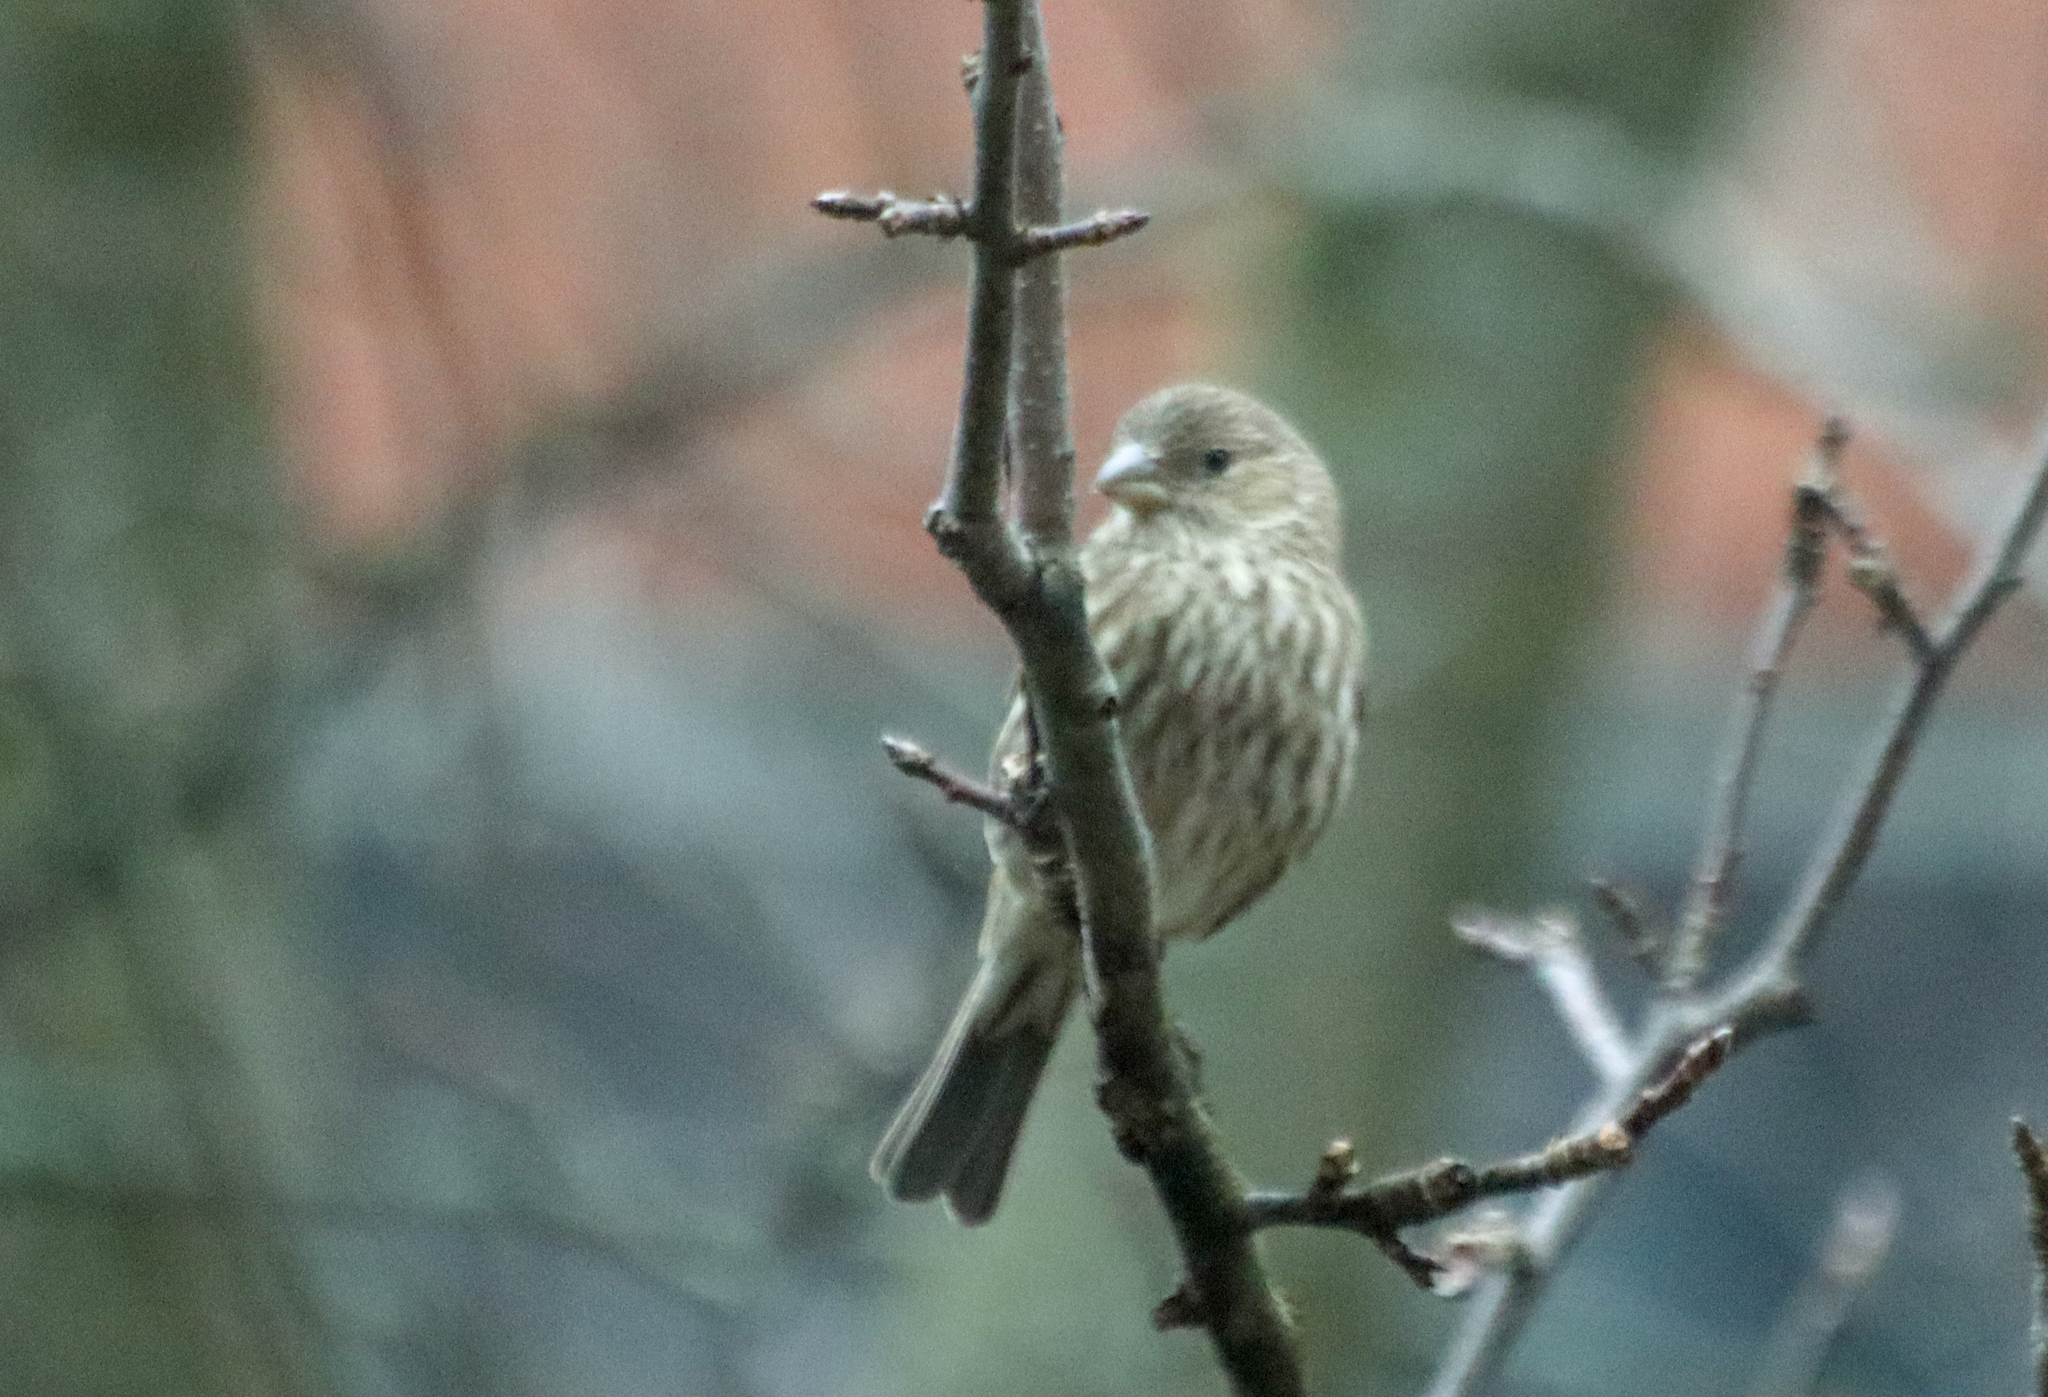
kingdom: Animalia
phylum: Chordata
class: Aves
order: Passeriformes
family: Fringillidae
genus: Haemorhous
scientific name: Haemorhous mexicanus
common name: House finch
